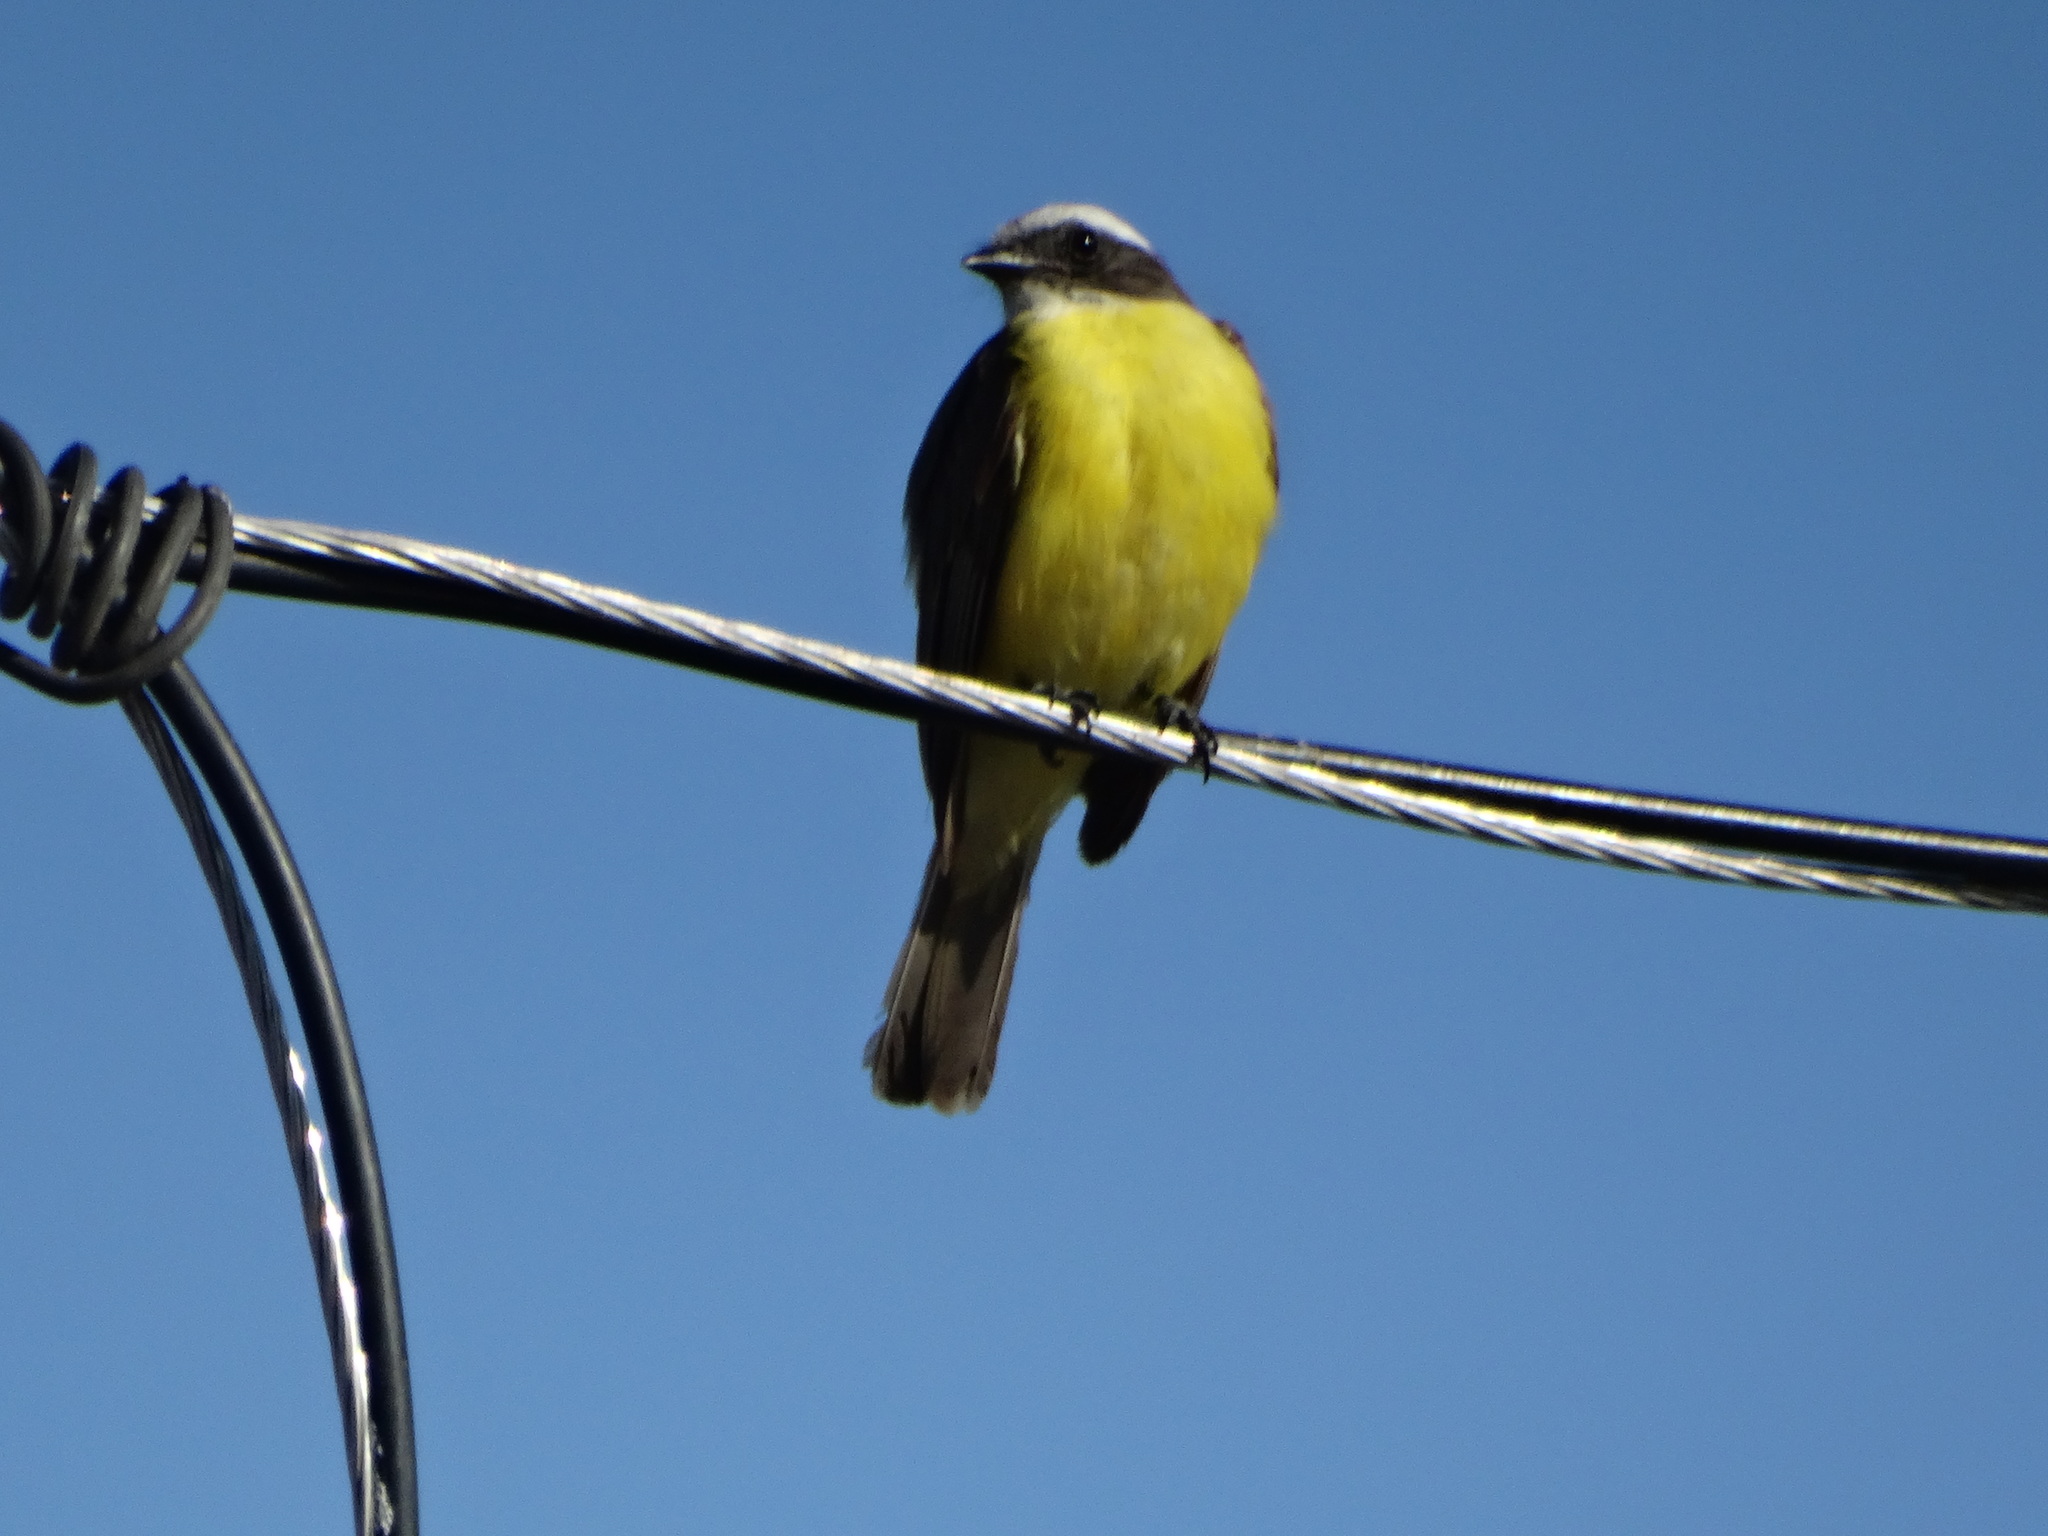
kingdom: Animalia
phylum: Chordata
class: Aves
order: Passeriformes
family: Tyrannidae
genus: Myiozetetes
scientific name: Myiozetetes similis
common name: Social flycatcher
